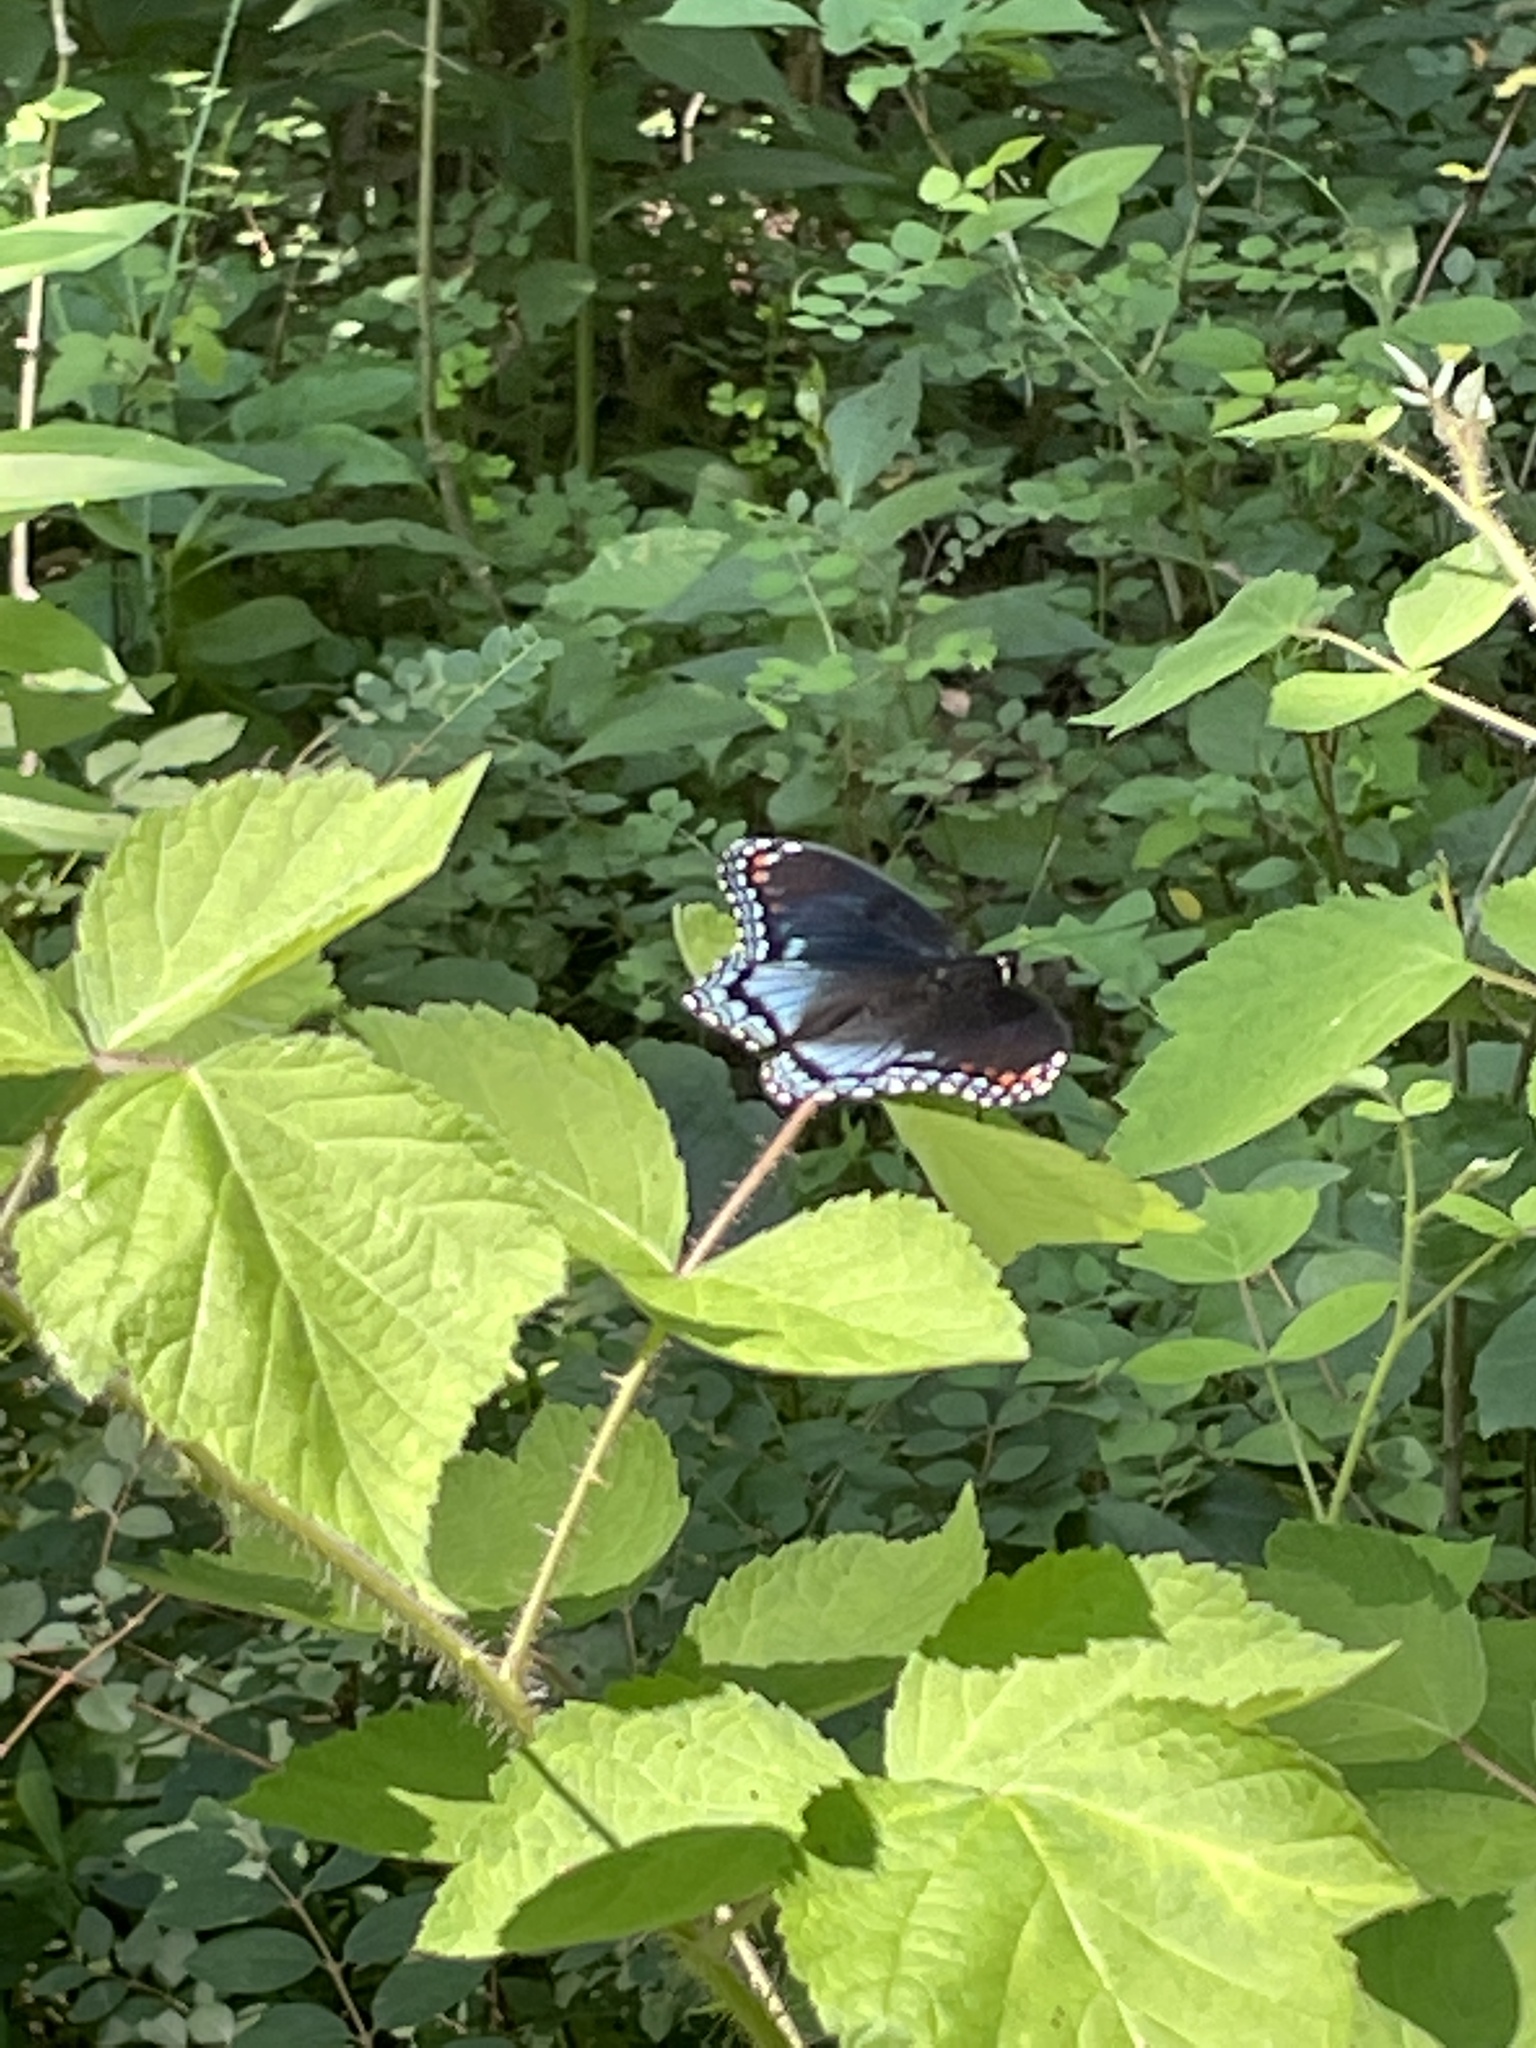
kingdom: Animalia
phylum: Arthropoda
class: Insecta
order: Lepidoptera
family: Nymphalidae
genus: Limenitis
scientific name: Limenitis astyanax
